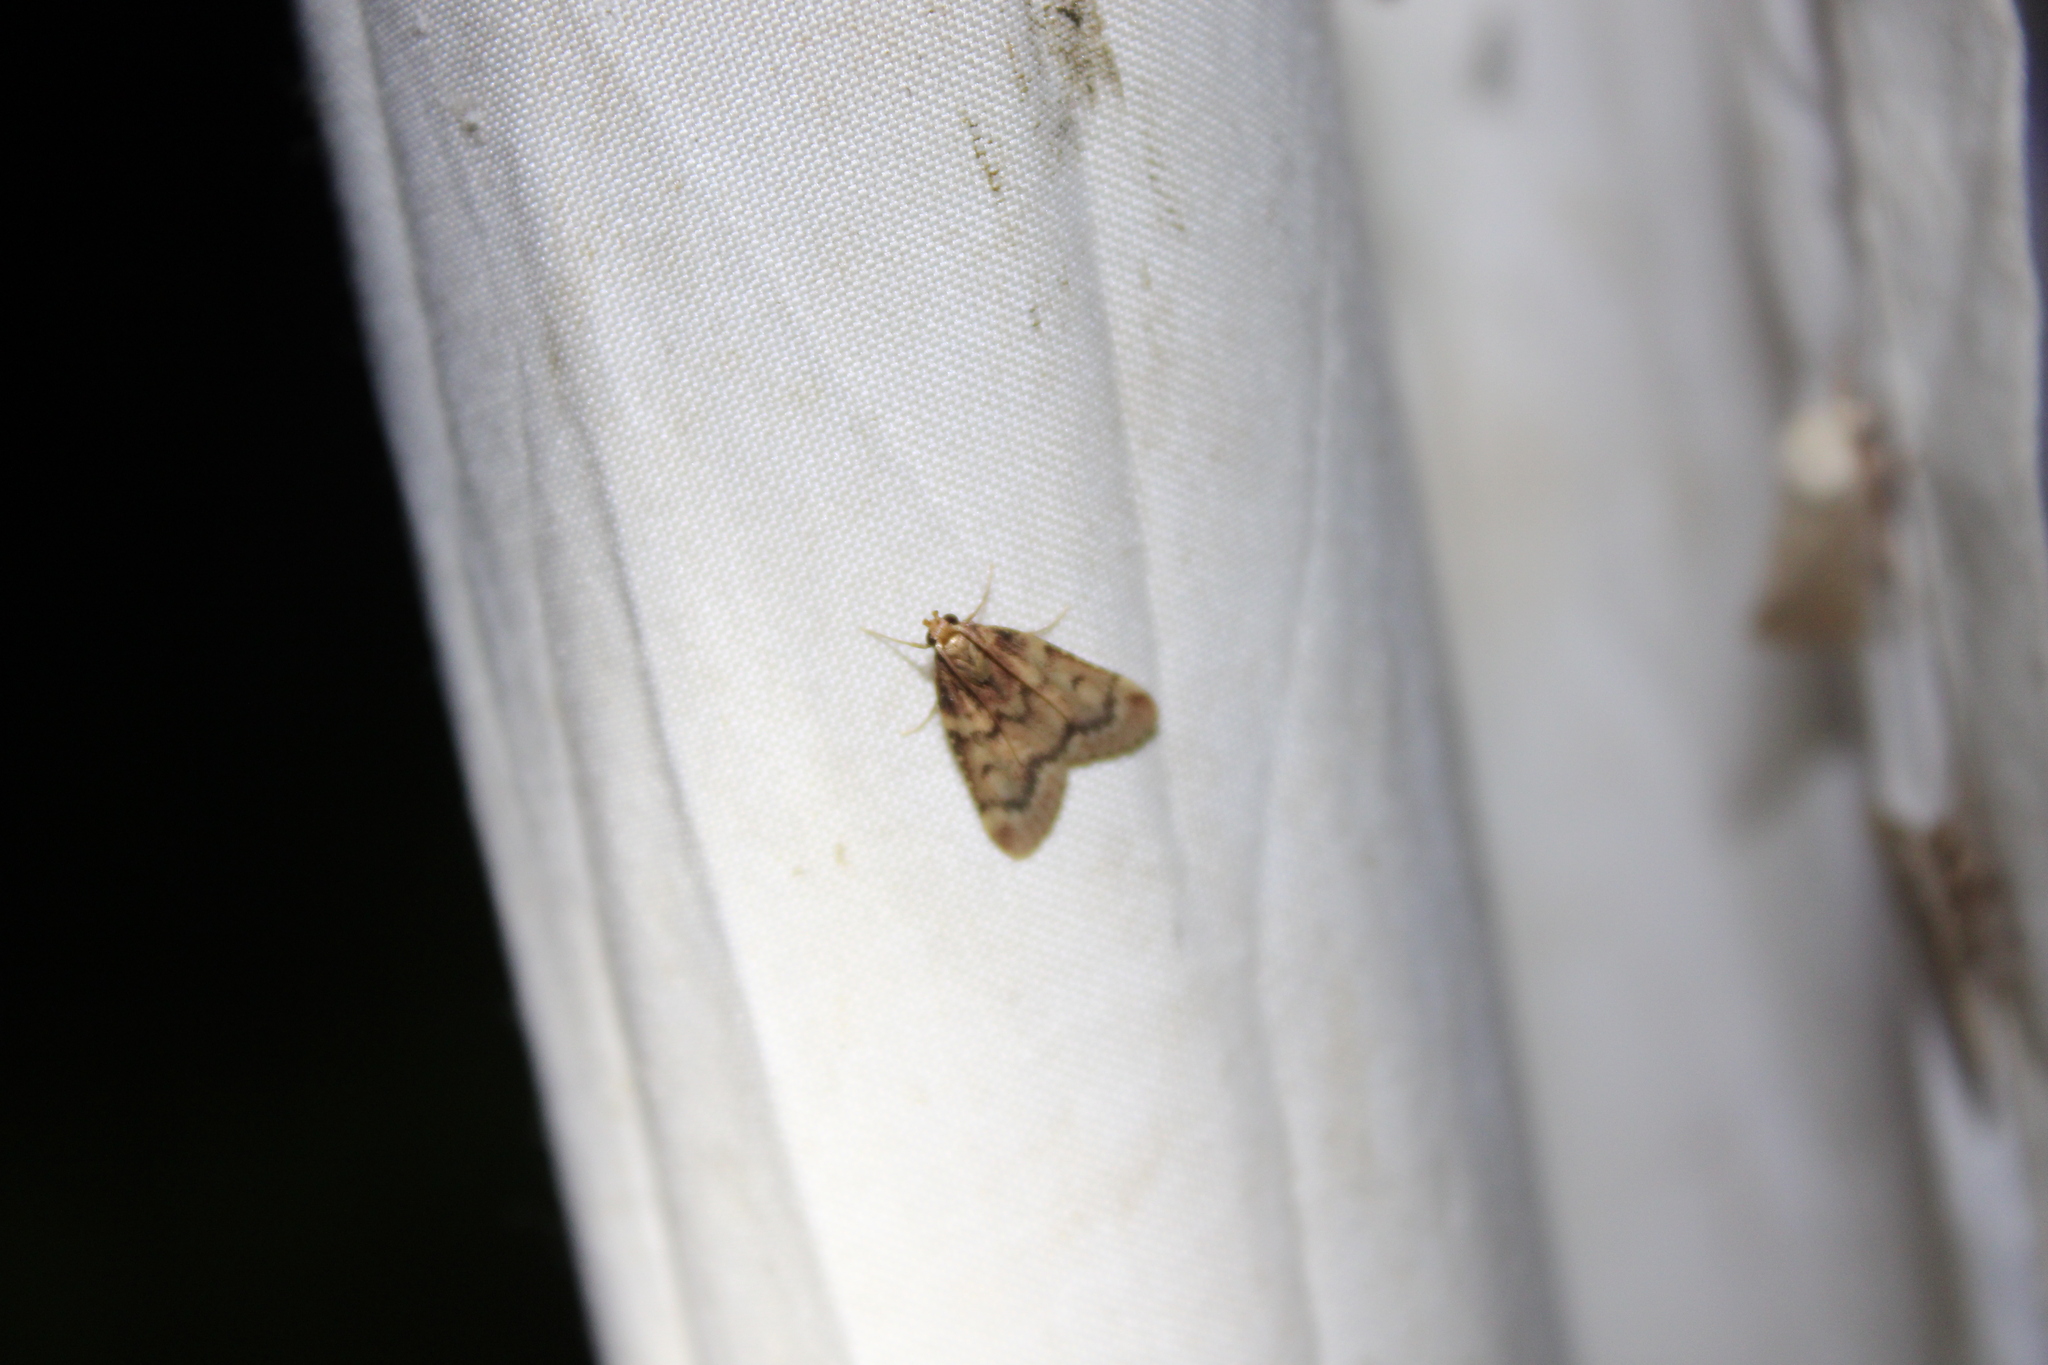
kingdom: Animalia
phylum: Arthropoda
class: Insecta
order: Lepidoptera
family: Pyralidae
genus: Aglossa
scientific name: Aglossa disciferalis
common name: Pink-masked pyralid moth
